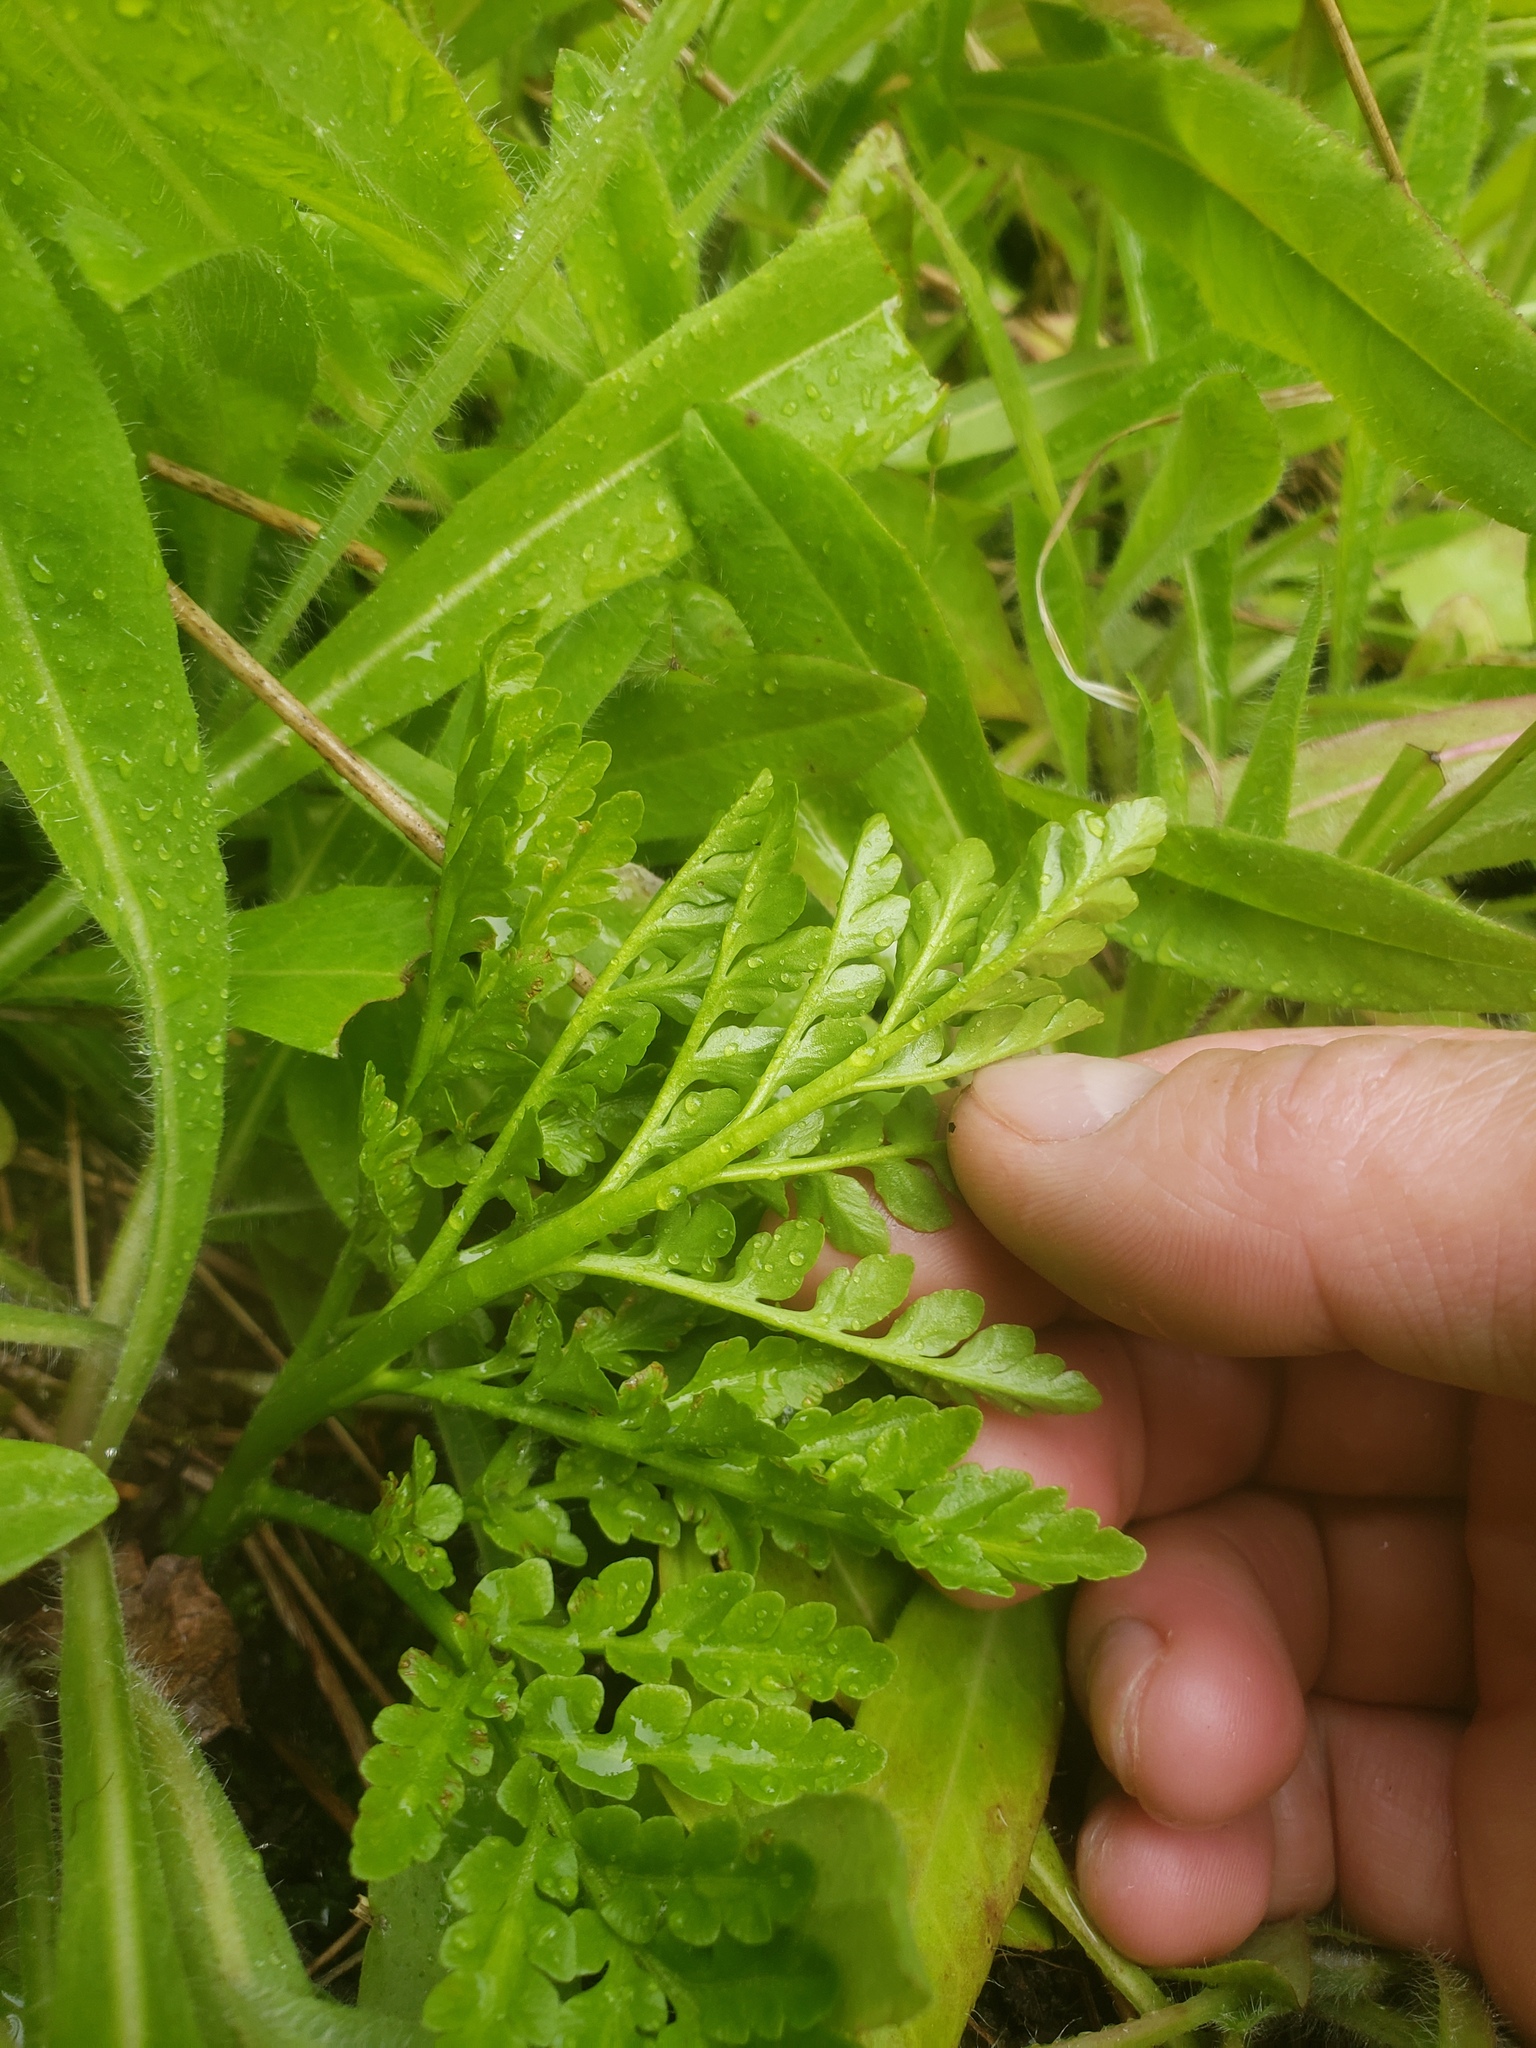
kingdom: Plantae
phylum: Tracheophyta
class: Polypodiopsida
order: Ophioglossales
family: Ophioglossaceae
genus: Sceptridium
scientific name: Sceptridium multifidum
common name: Leathery grape fern
